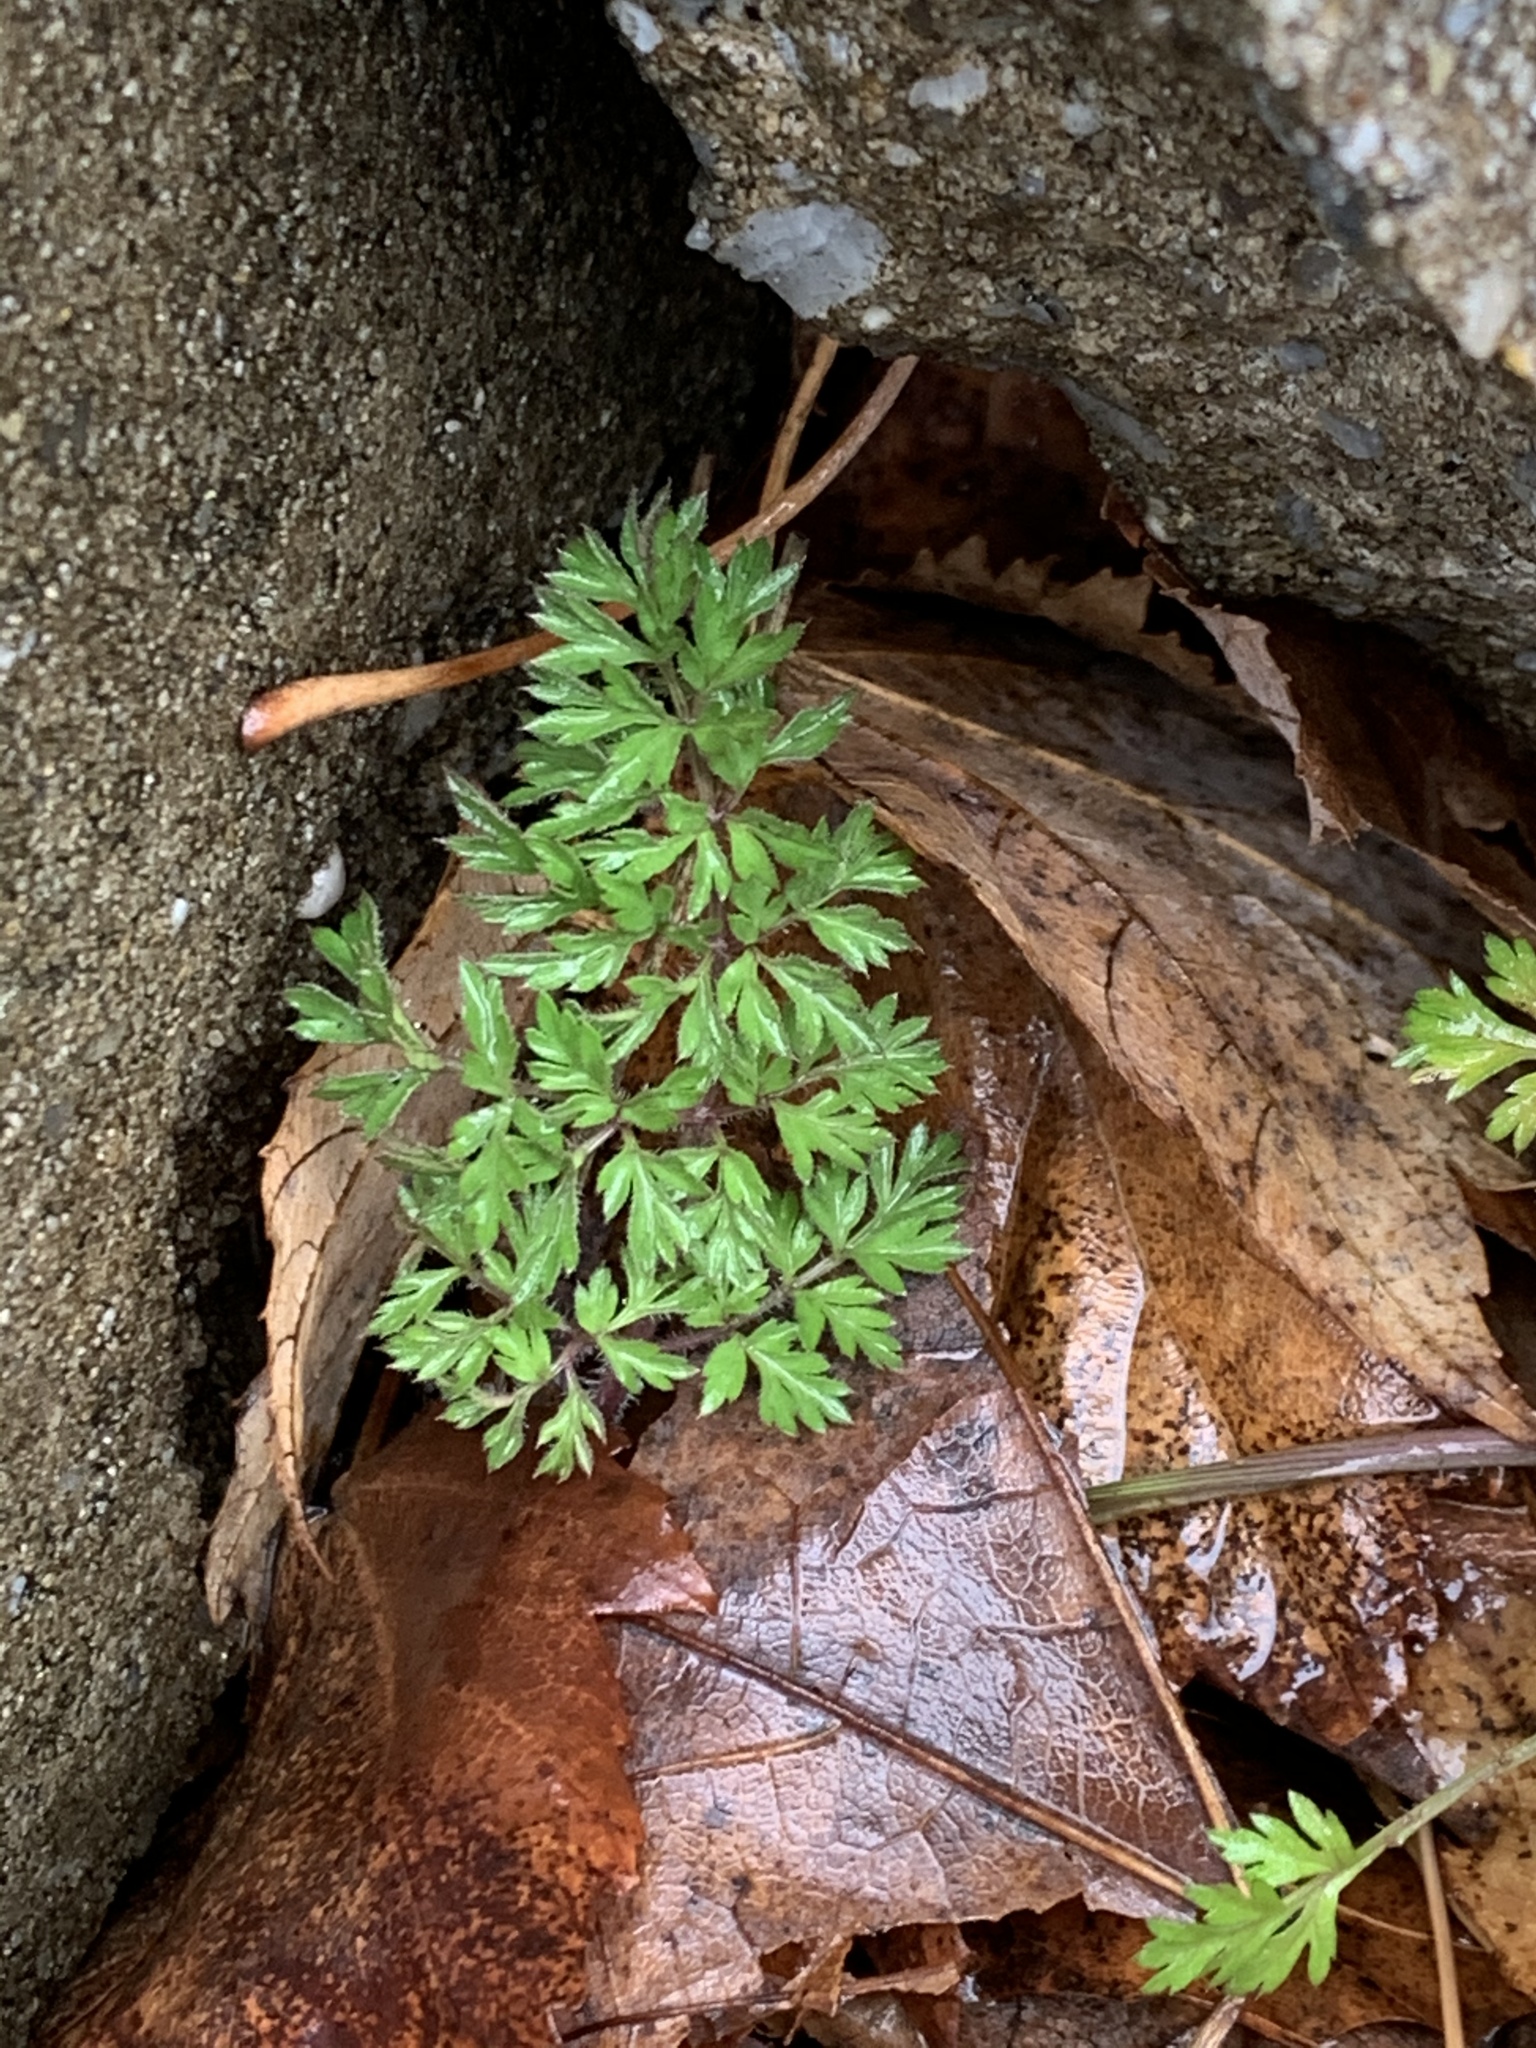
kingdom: Plantae
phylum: Tracheophyta
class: Magnoliopsida
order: Apiales
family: Apiaceae
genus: Daucus
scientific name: Daucus carota
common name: Wild carrot
